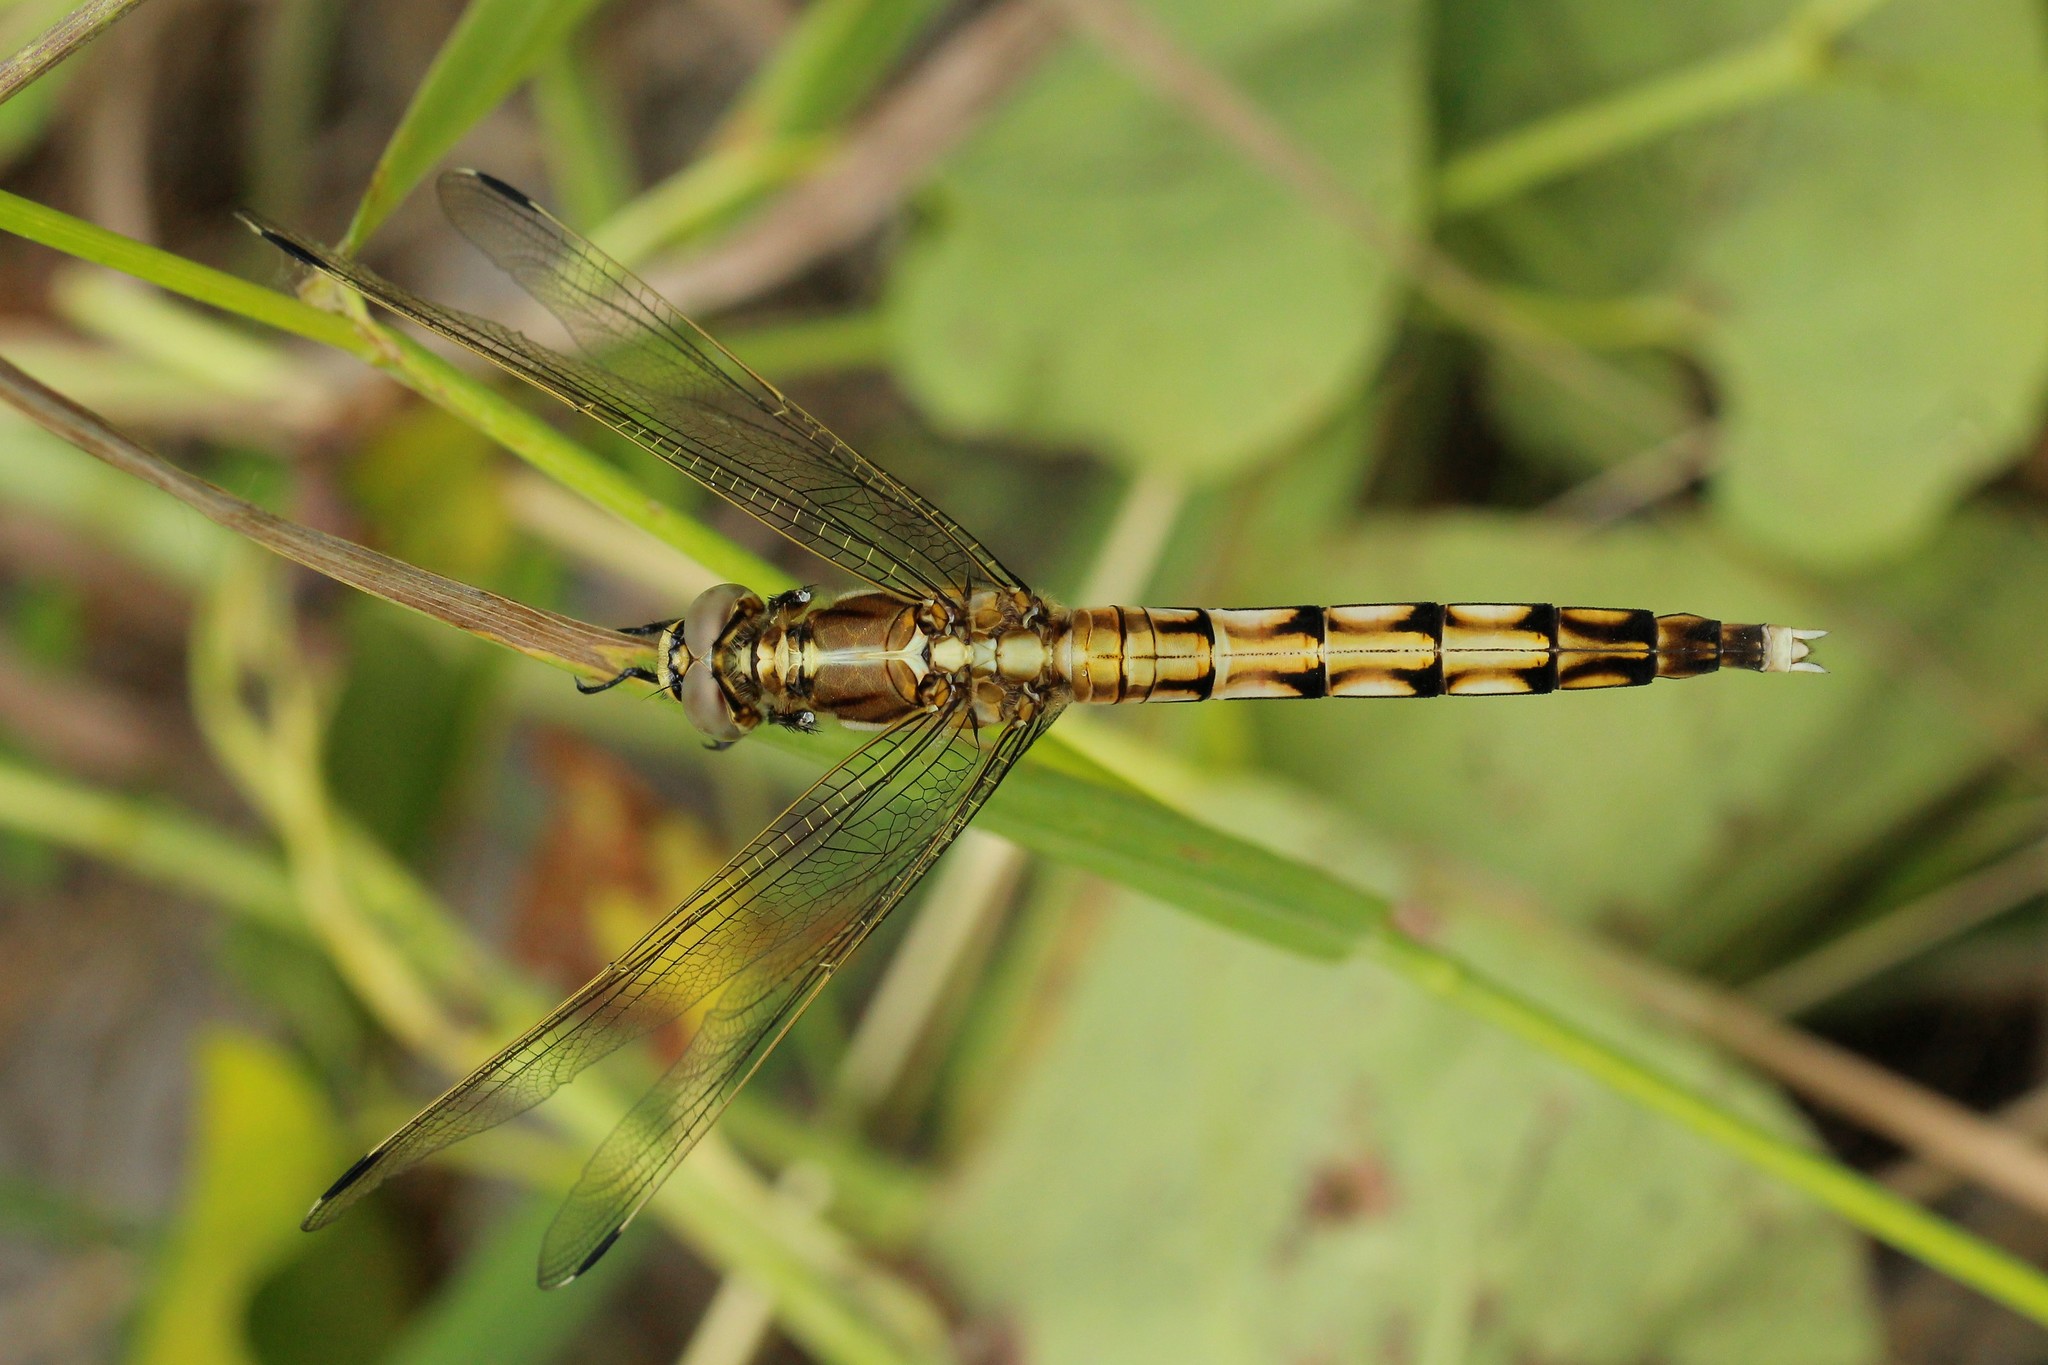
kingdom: Animalia
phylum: Arthropoda
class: Insecta
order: Odonata
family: Libellulidae
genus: Orthetrum
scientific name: Orthetrum albistylum
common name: White-tailed skimmer
